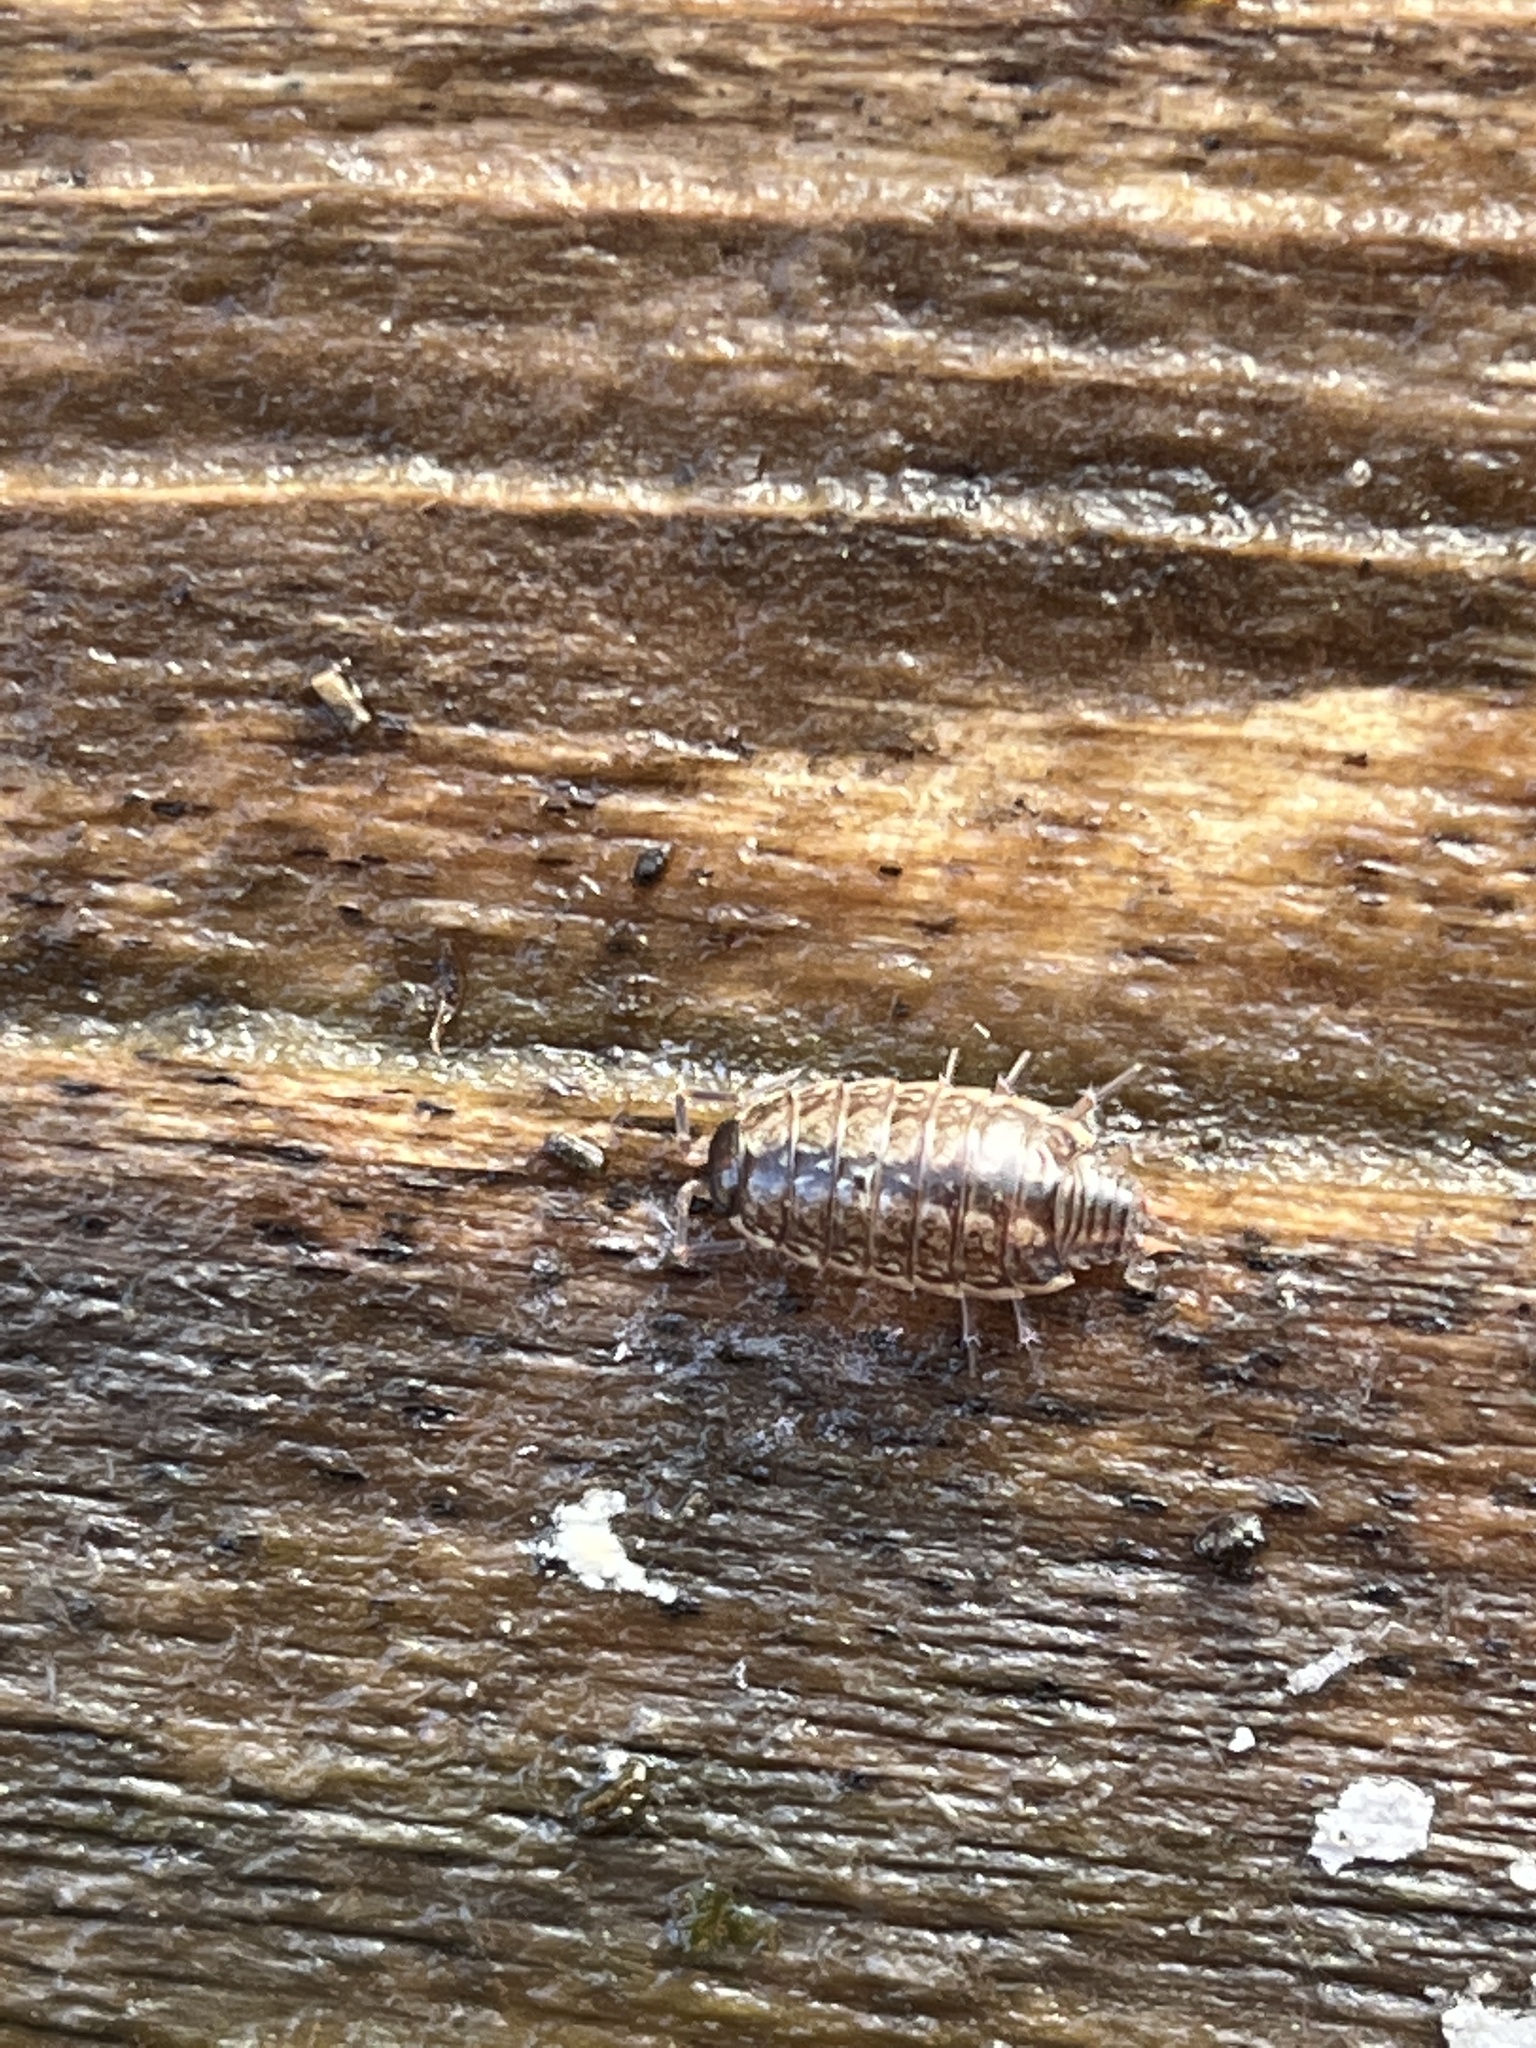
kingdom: Animalia
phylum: Arthropoda
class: Malacostraca
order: Isopoda
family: Philosciidae
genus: Philoscia
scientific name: Philoscia muscorum
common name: Common striped woodlouse
